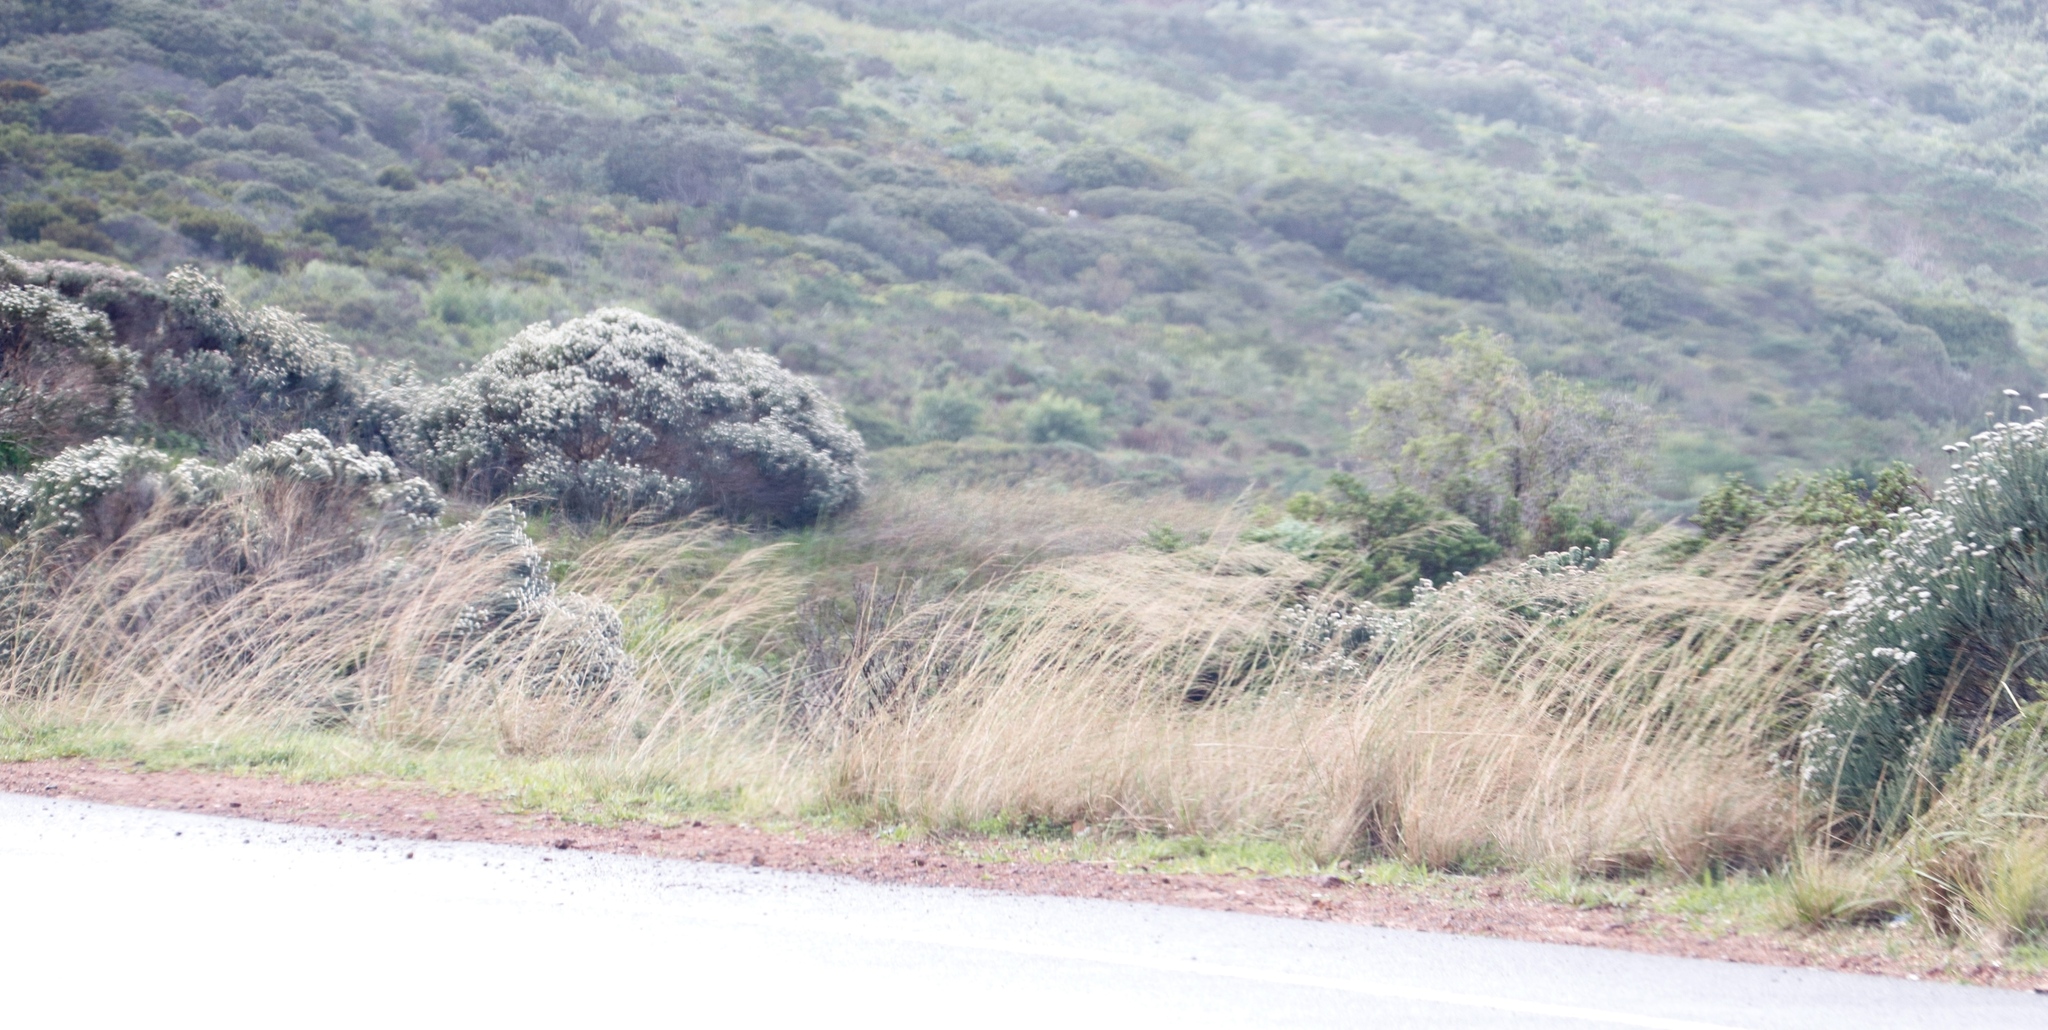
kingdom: Plantae
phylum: Tracheophyta
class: Magnoliopsida
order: Asterales
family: Asteraceae
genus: Metalasia
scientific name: Metalasia muricata
